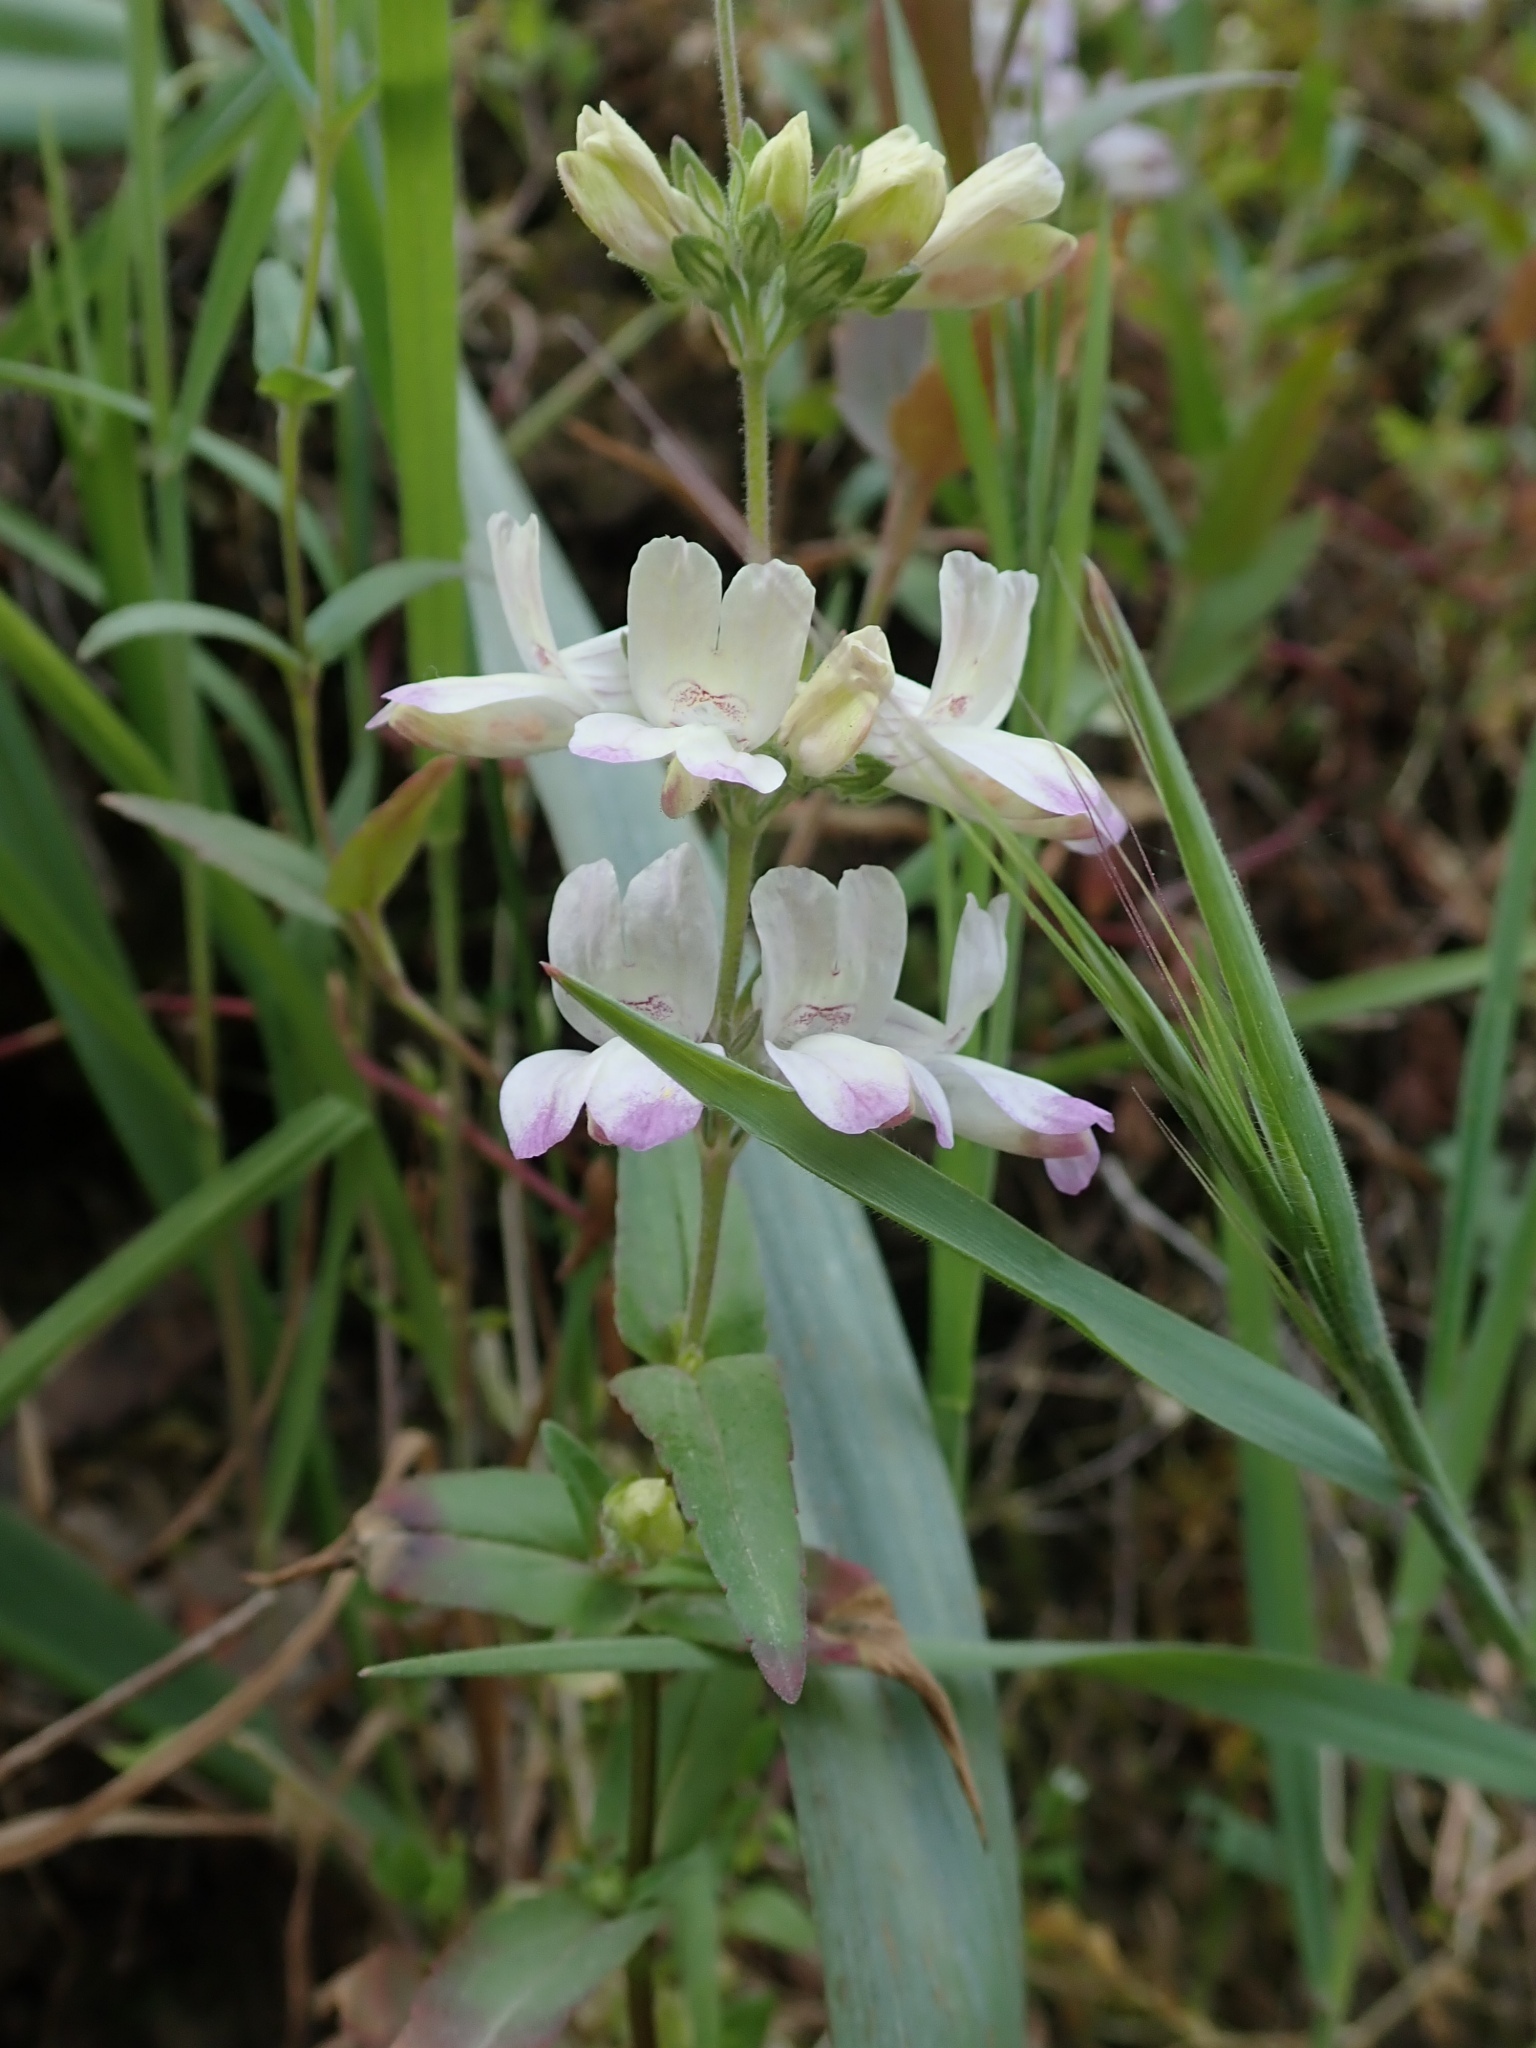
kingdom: Plantae
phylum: Tracheophyta
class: Magnoliopsida
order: Lamiales
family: Plantaginaceae
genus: Collinsia
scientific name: Collinsia heterophylla
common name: Chinese-houses
